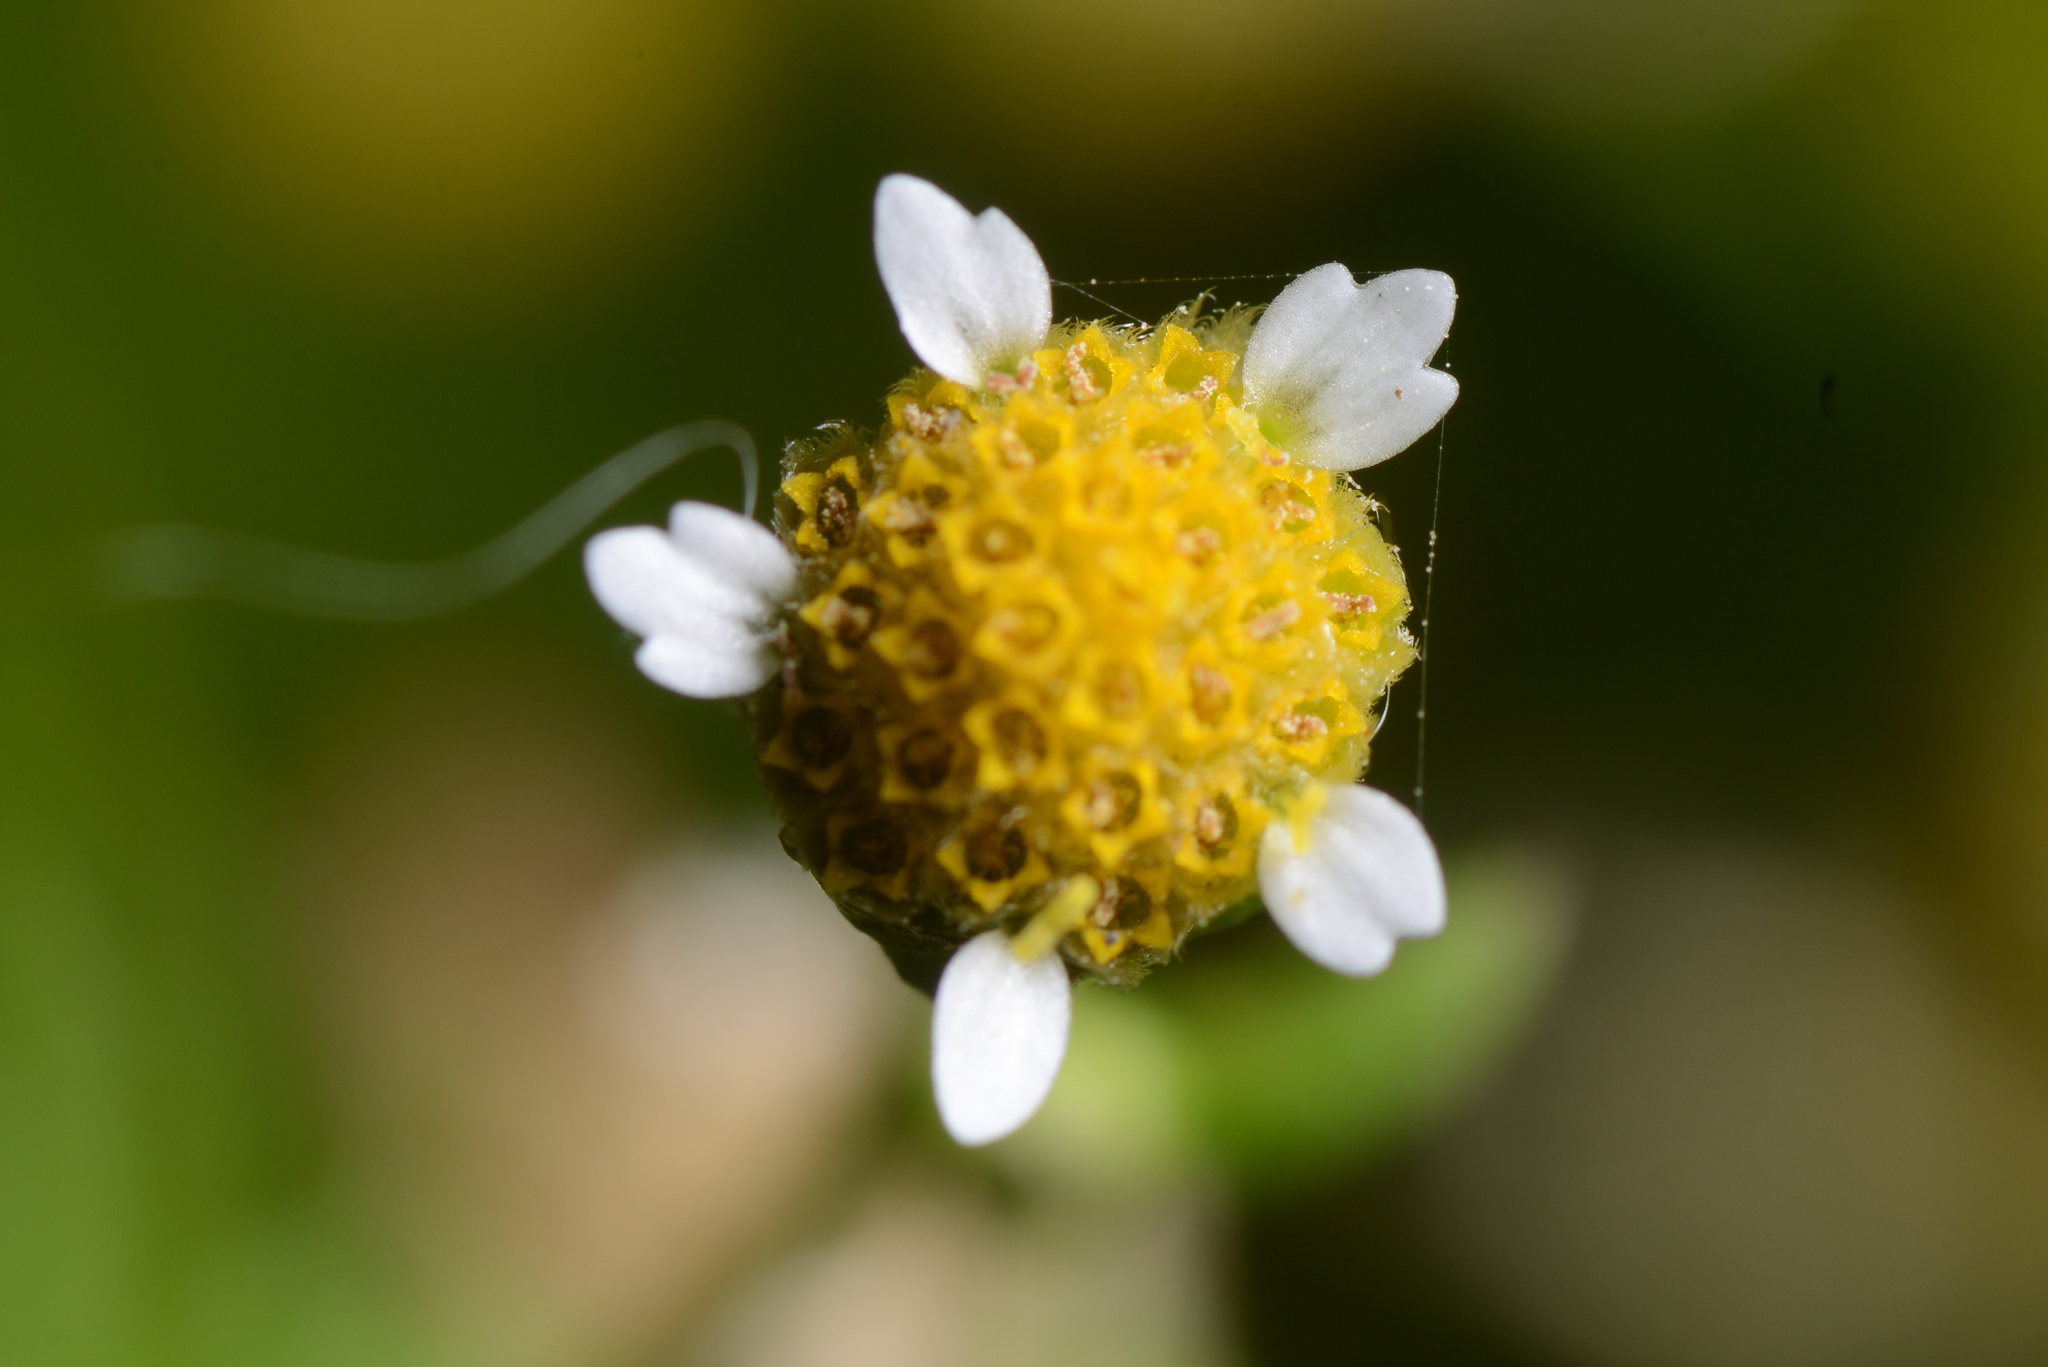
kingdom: Plantae
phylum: Tracheophyta
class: Magnoliopsida
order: Asterales
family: Asteraceae
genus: Galinsoga
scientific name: Galinsoga parviflora
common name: Gallant soldier
